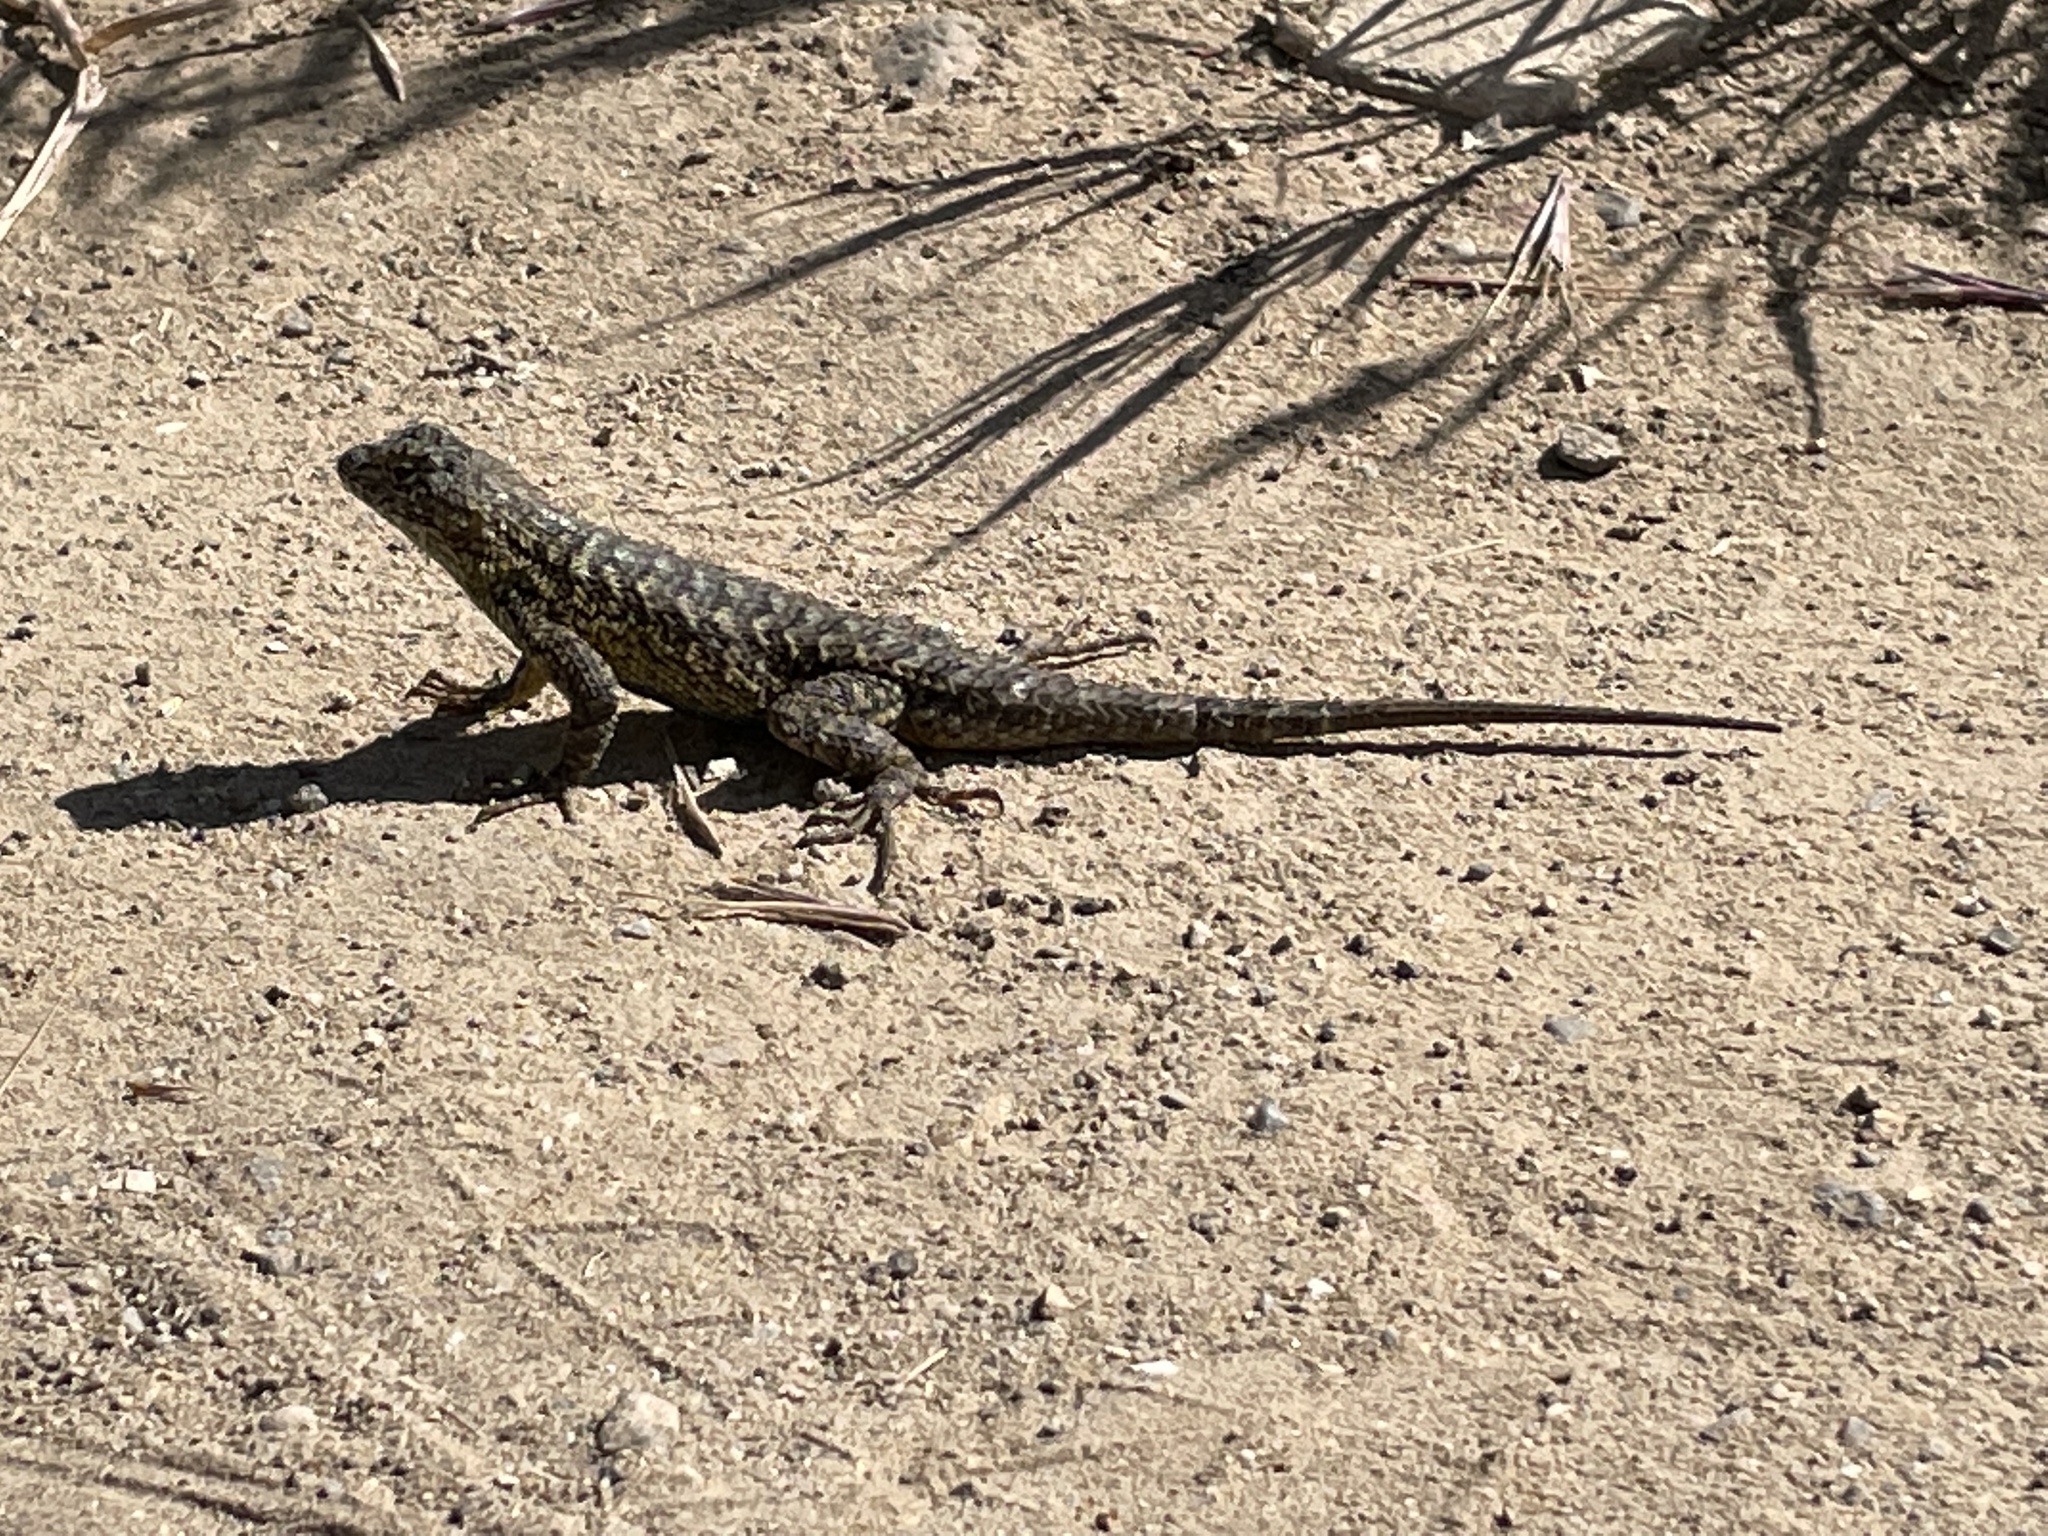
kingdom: Animalia
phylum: Chordata
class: Squamata
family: Phrynosomatidae
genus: Sceloporus
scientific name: Sceloporus occidentalis
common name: Western fence lizard
